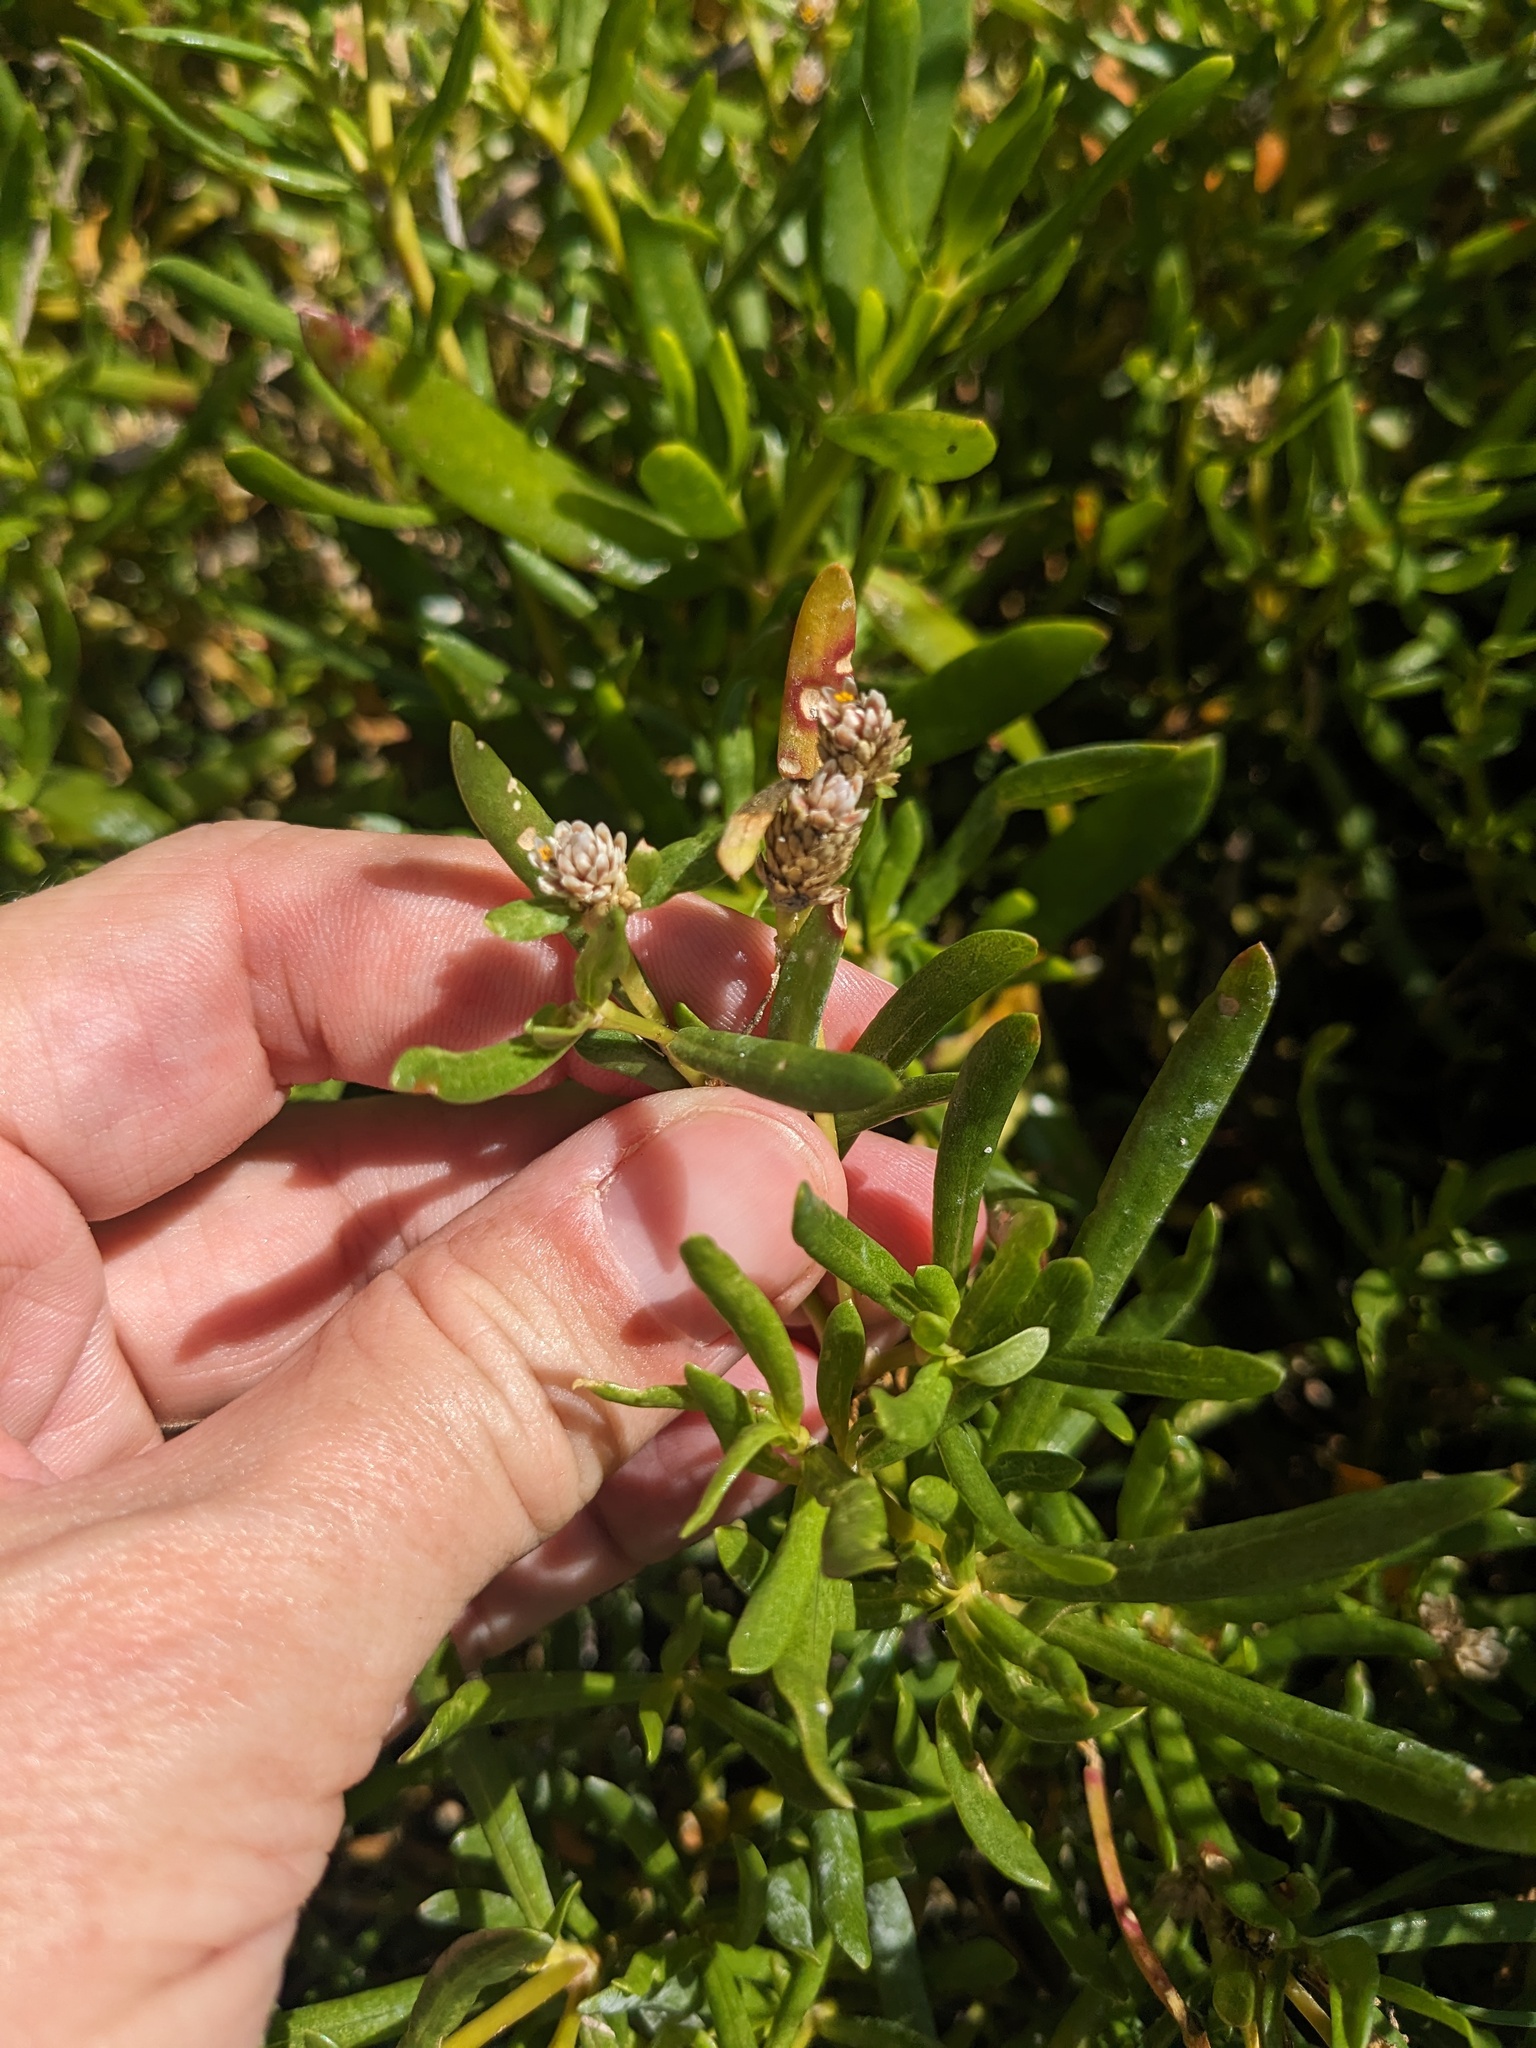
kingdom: Plantae
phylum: Tracheophyta
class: Magnoliopsida
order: Caryophyllales
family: Amaranthaceae
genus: Gomphrena
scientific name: Gomphrena vermicularis
